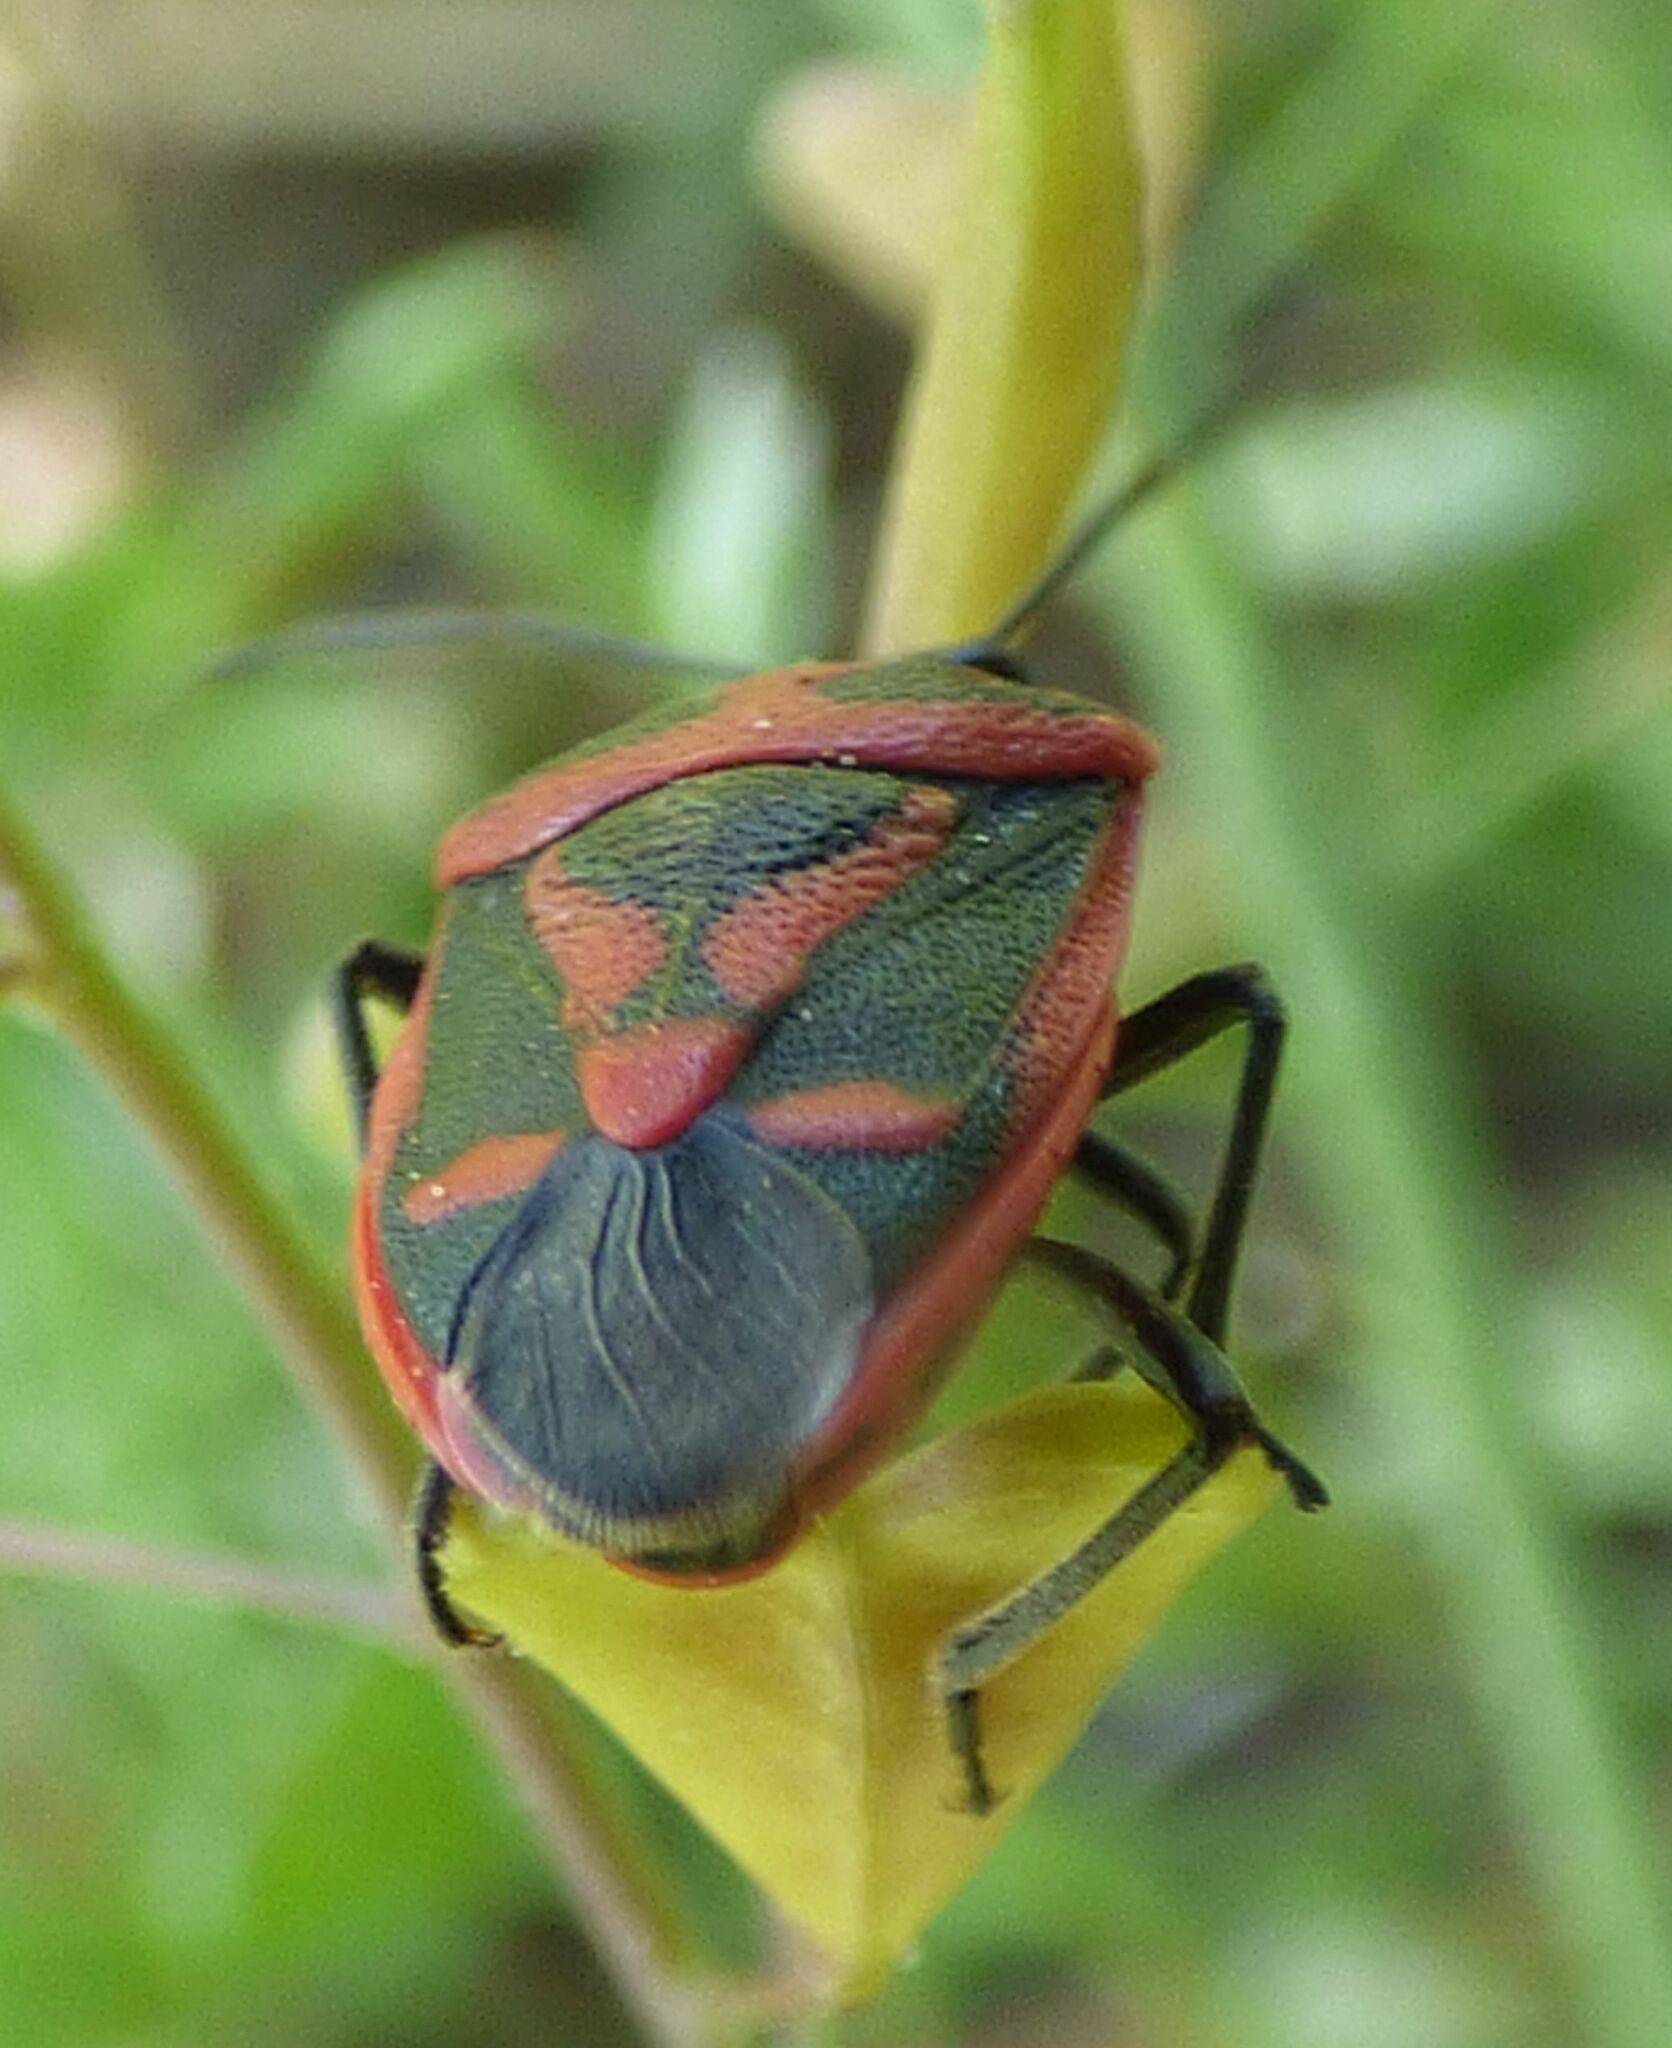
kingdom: Animalia
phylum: Arthropoda
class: Insecta
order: Hemiptera
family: Pentatomidae
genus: Eurydema
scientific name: Eurydema rugulosa
